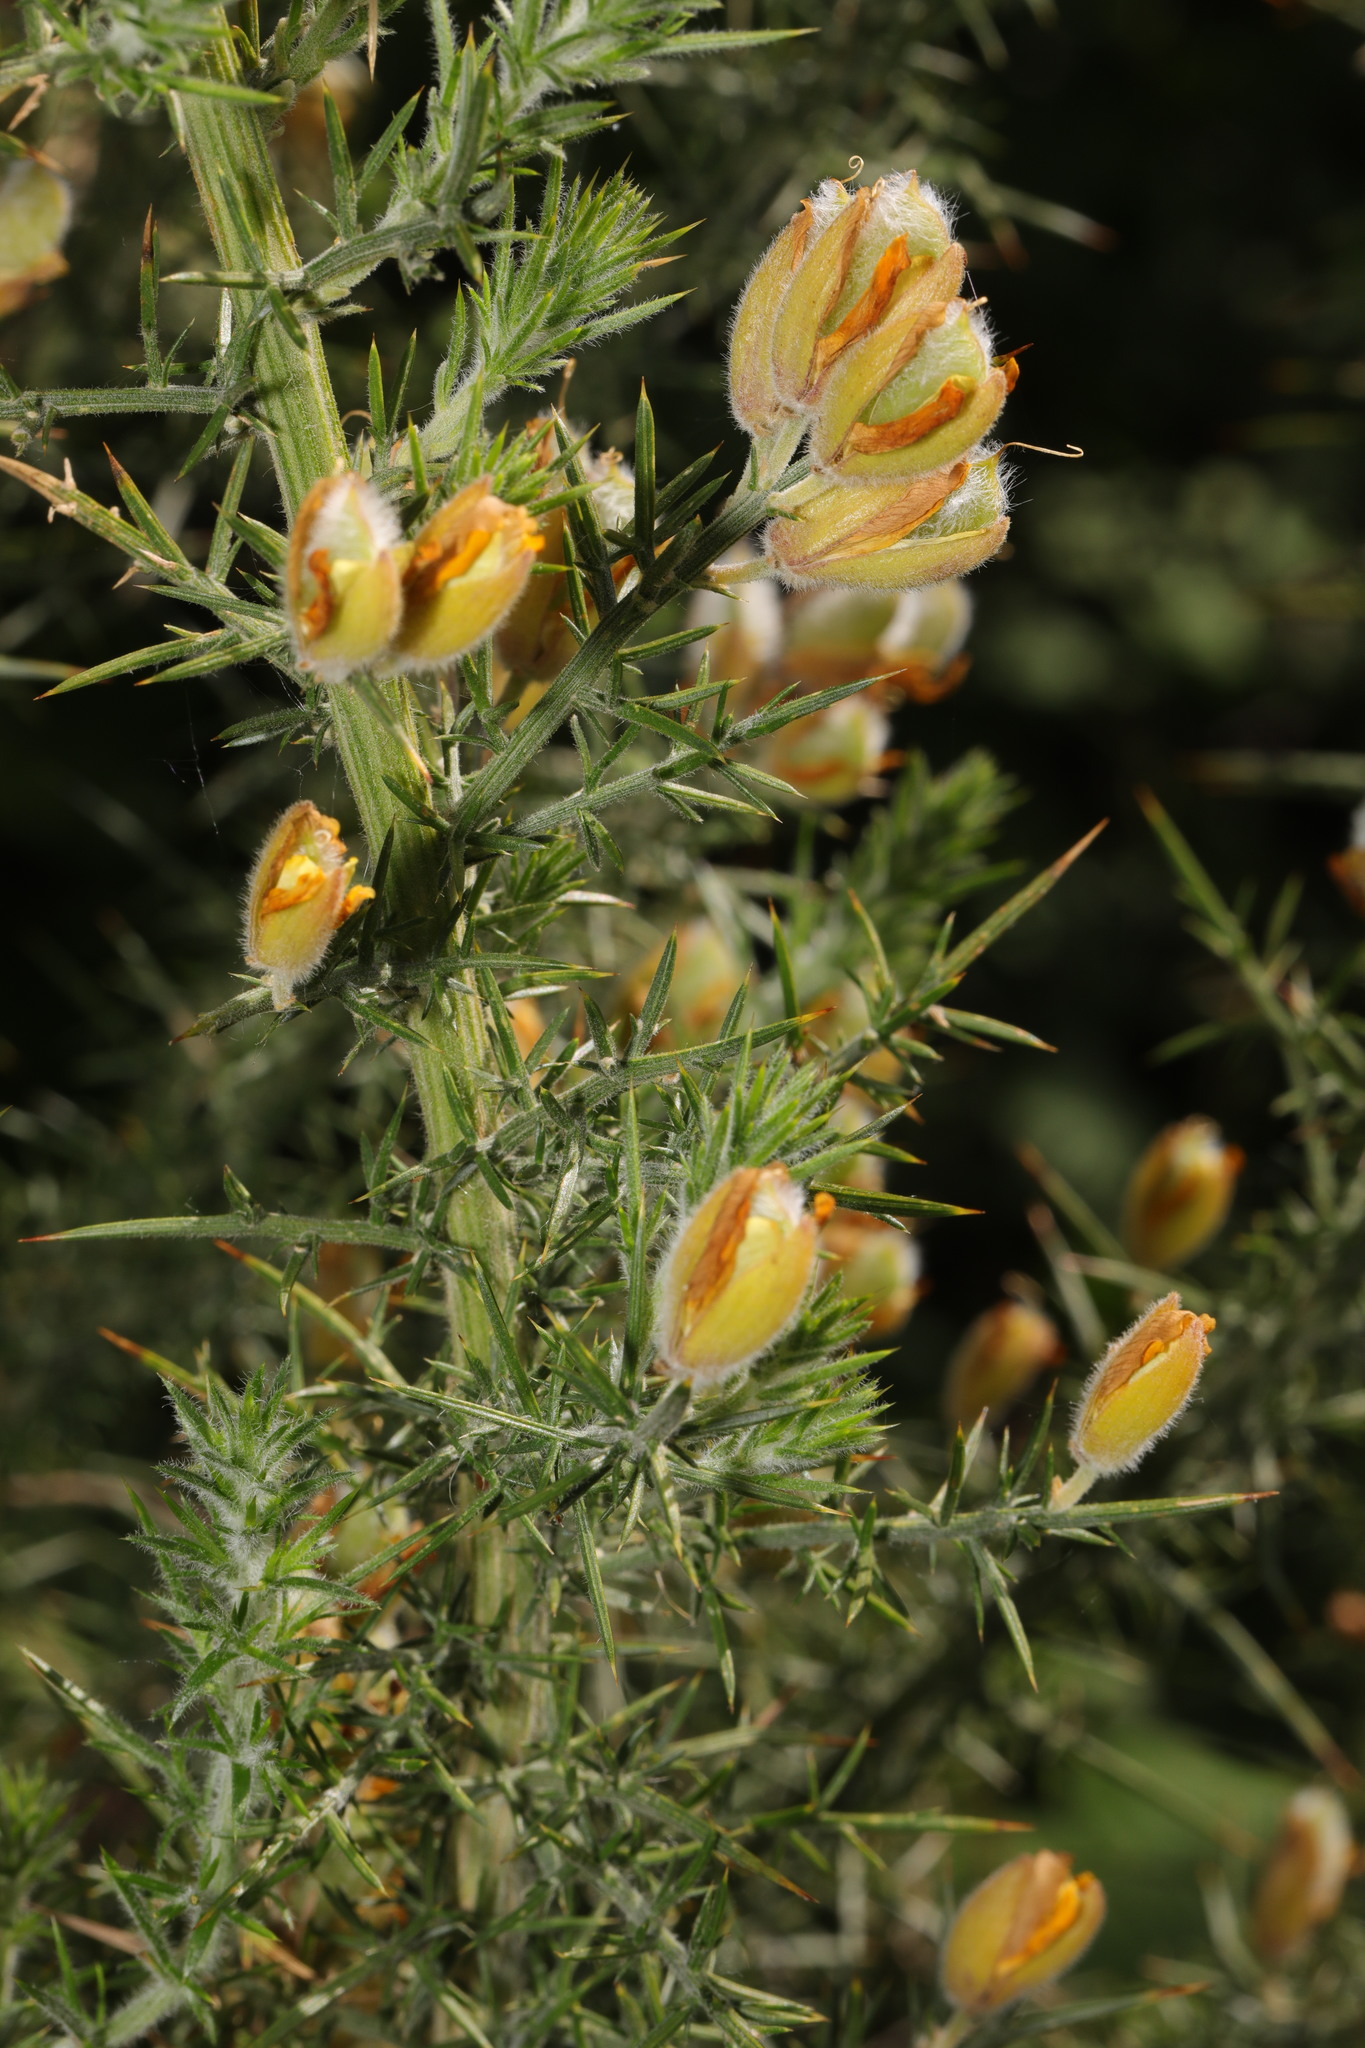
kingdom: Plantae
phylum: Tracheophyta
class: Magnoliopsida
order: Fabales
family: Fabaceae
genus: Ulex
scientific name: Ulex europaeus
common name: Common gorse
